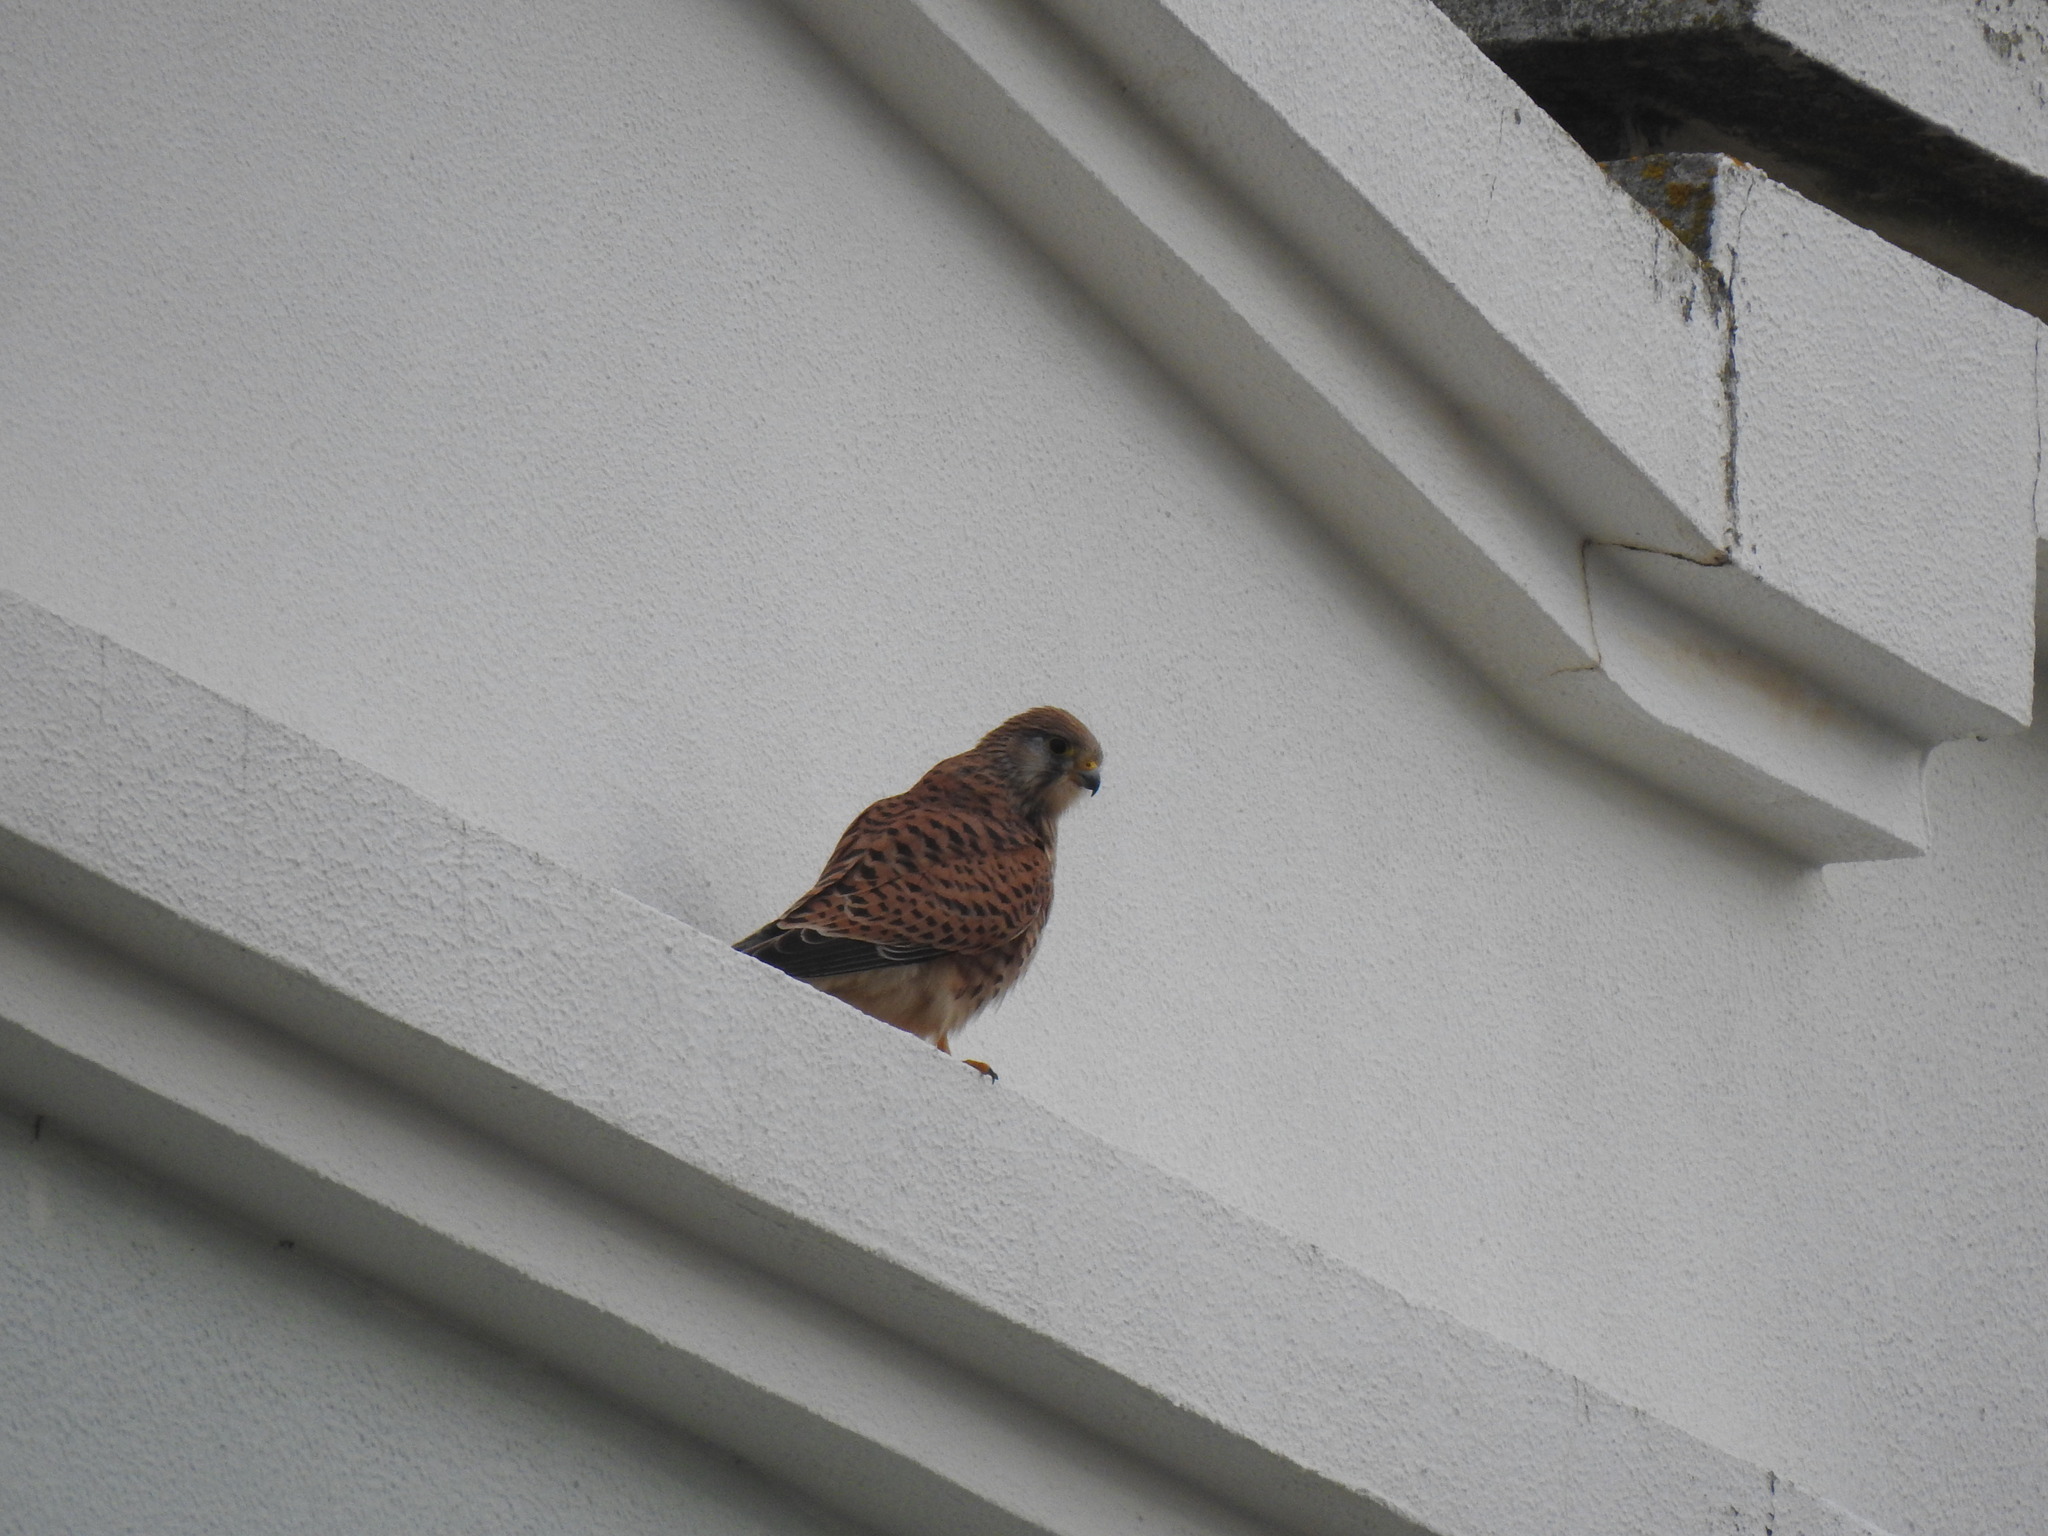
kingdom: Animalia
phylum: Chordata
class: Aves
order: Falconiformes
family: Falconidae
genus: Falco
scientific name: Falco tinnunculus
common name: Common kestrel
